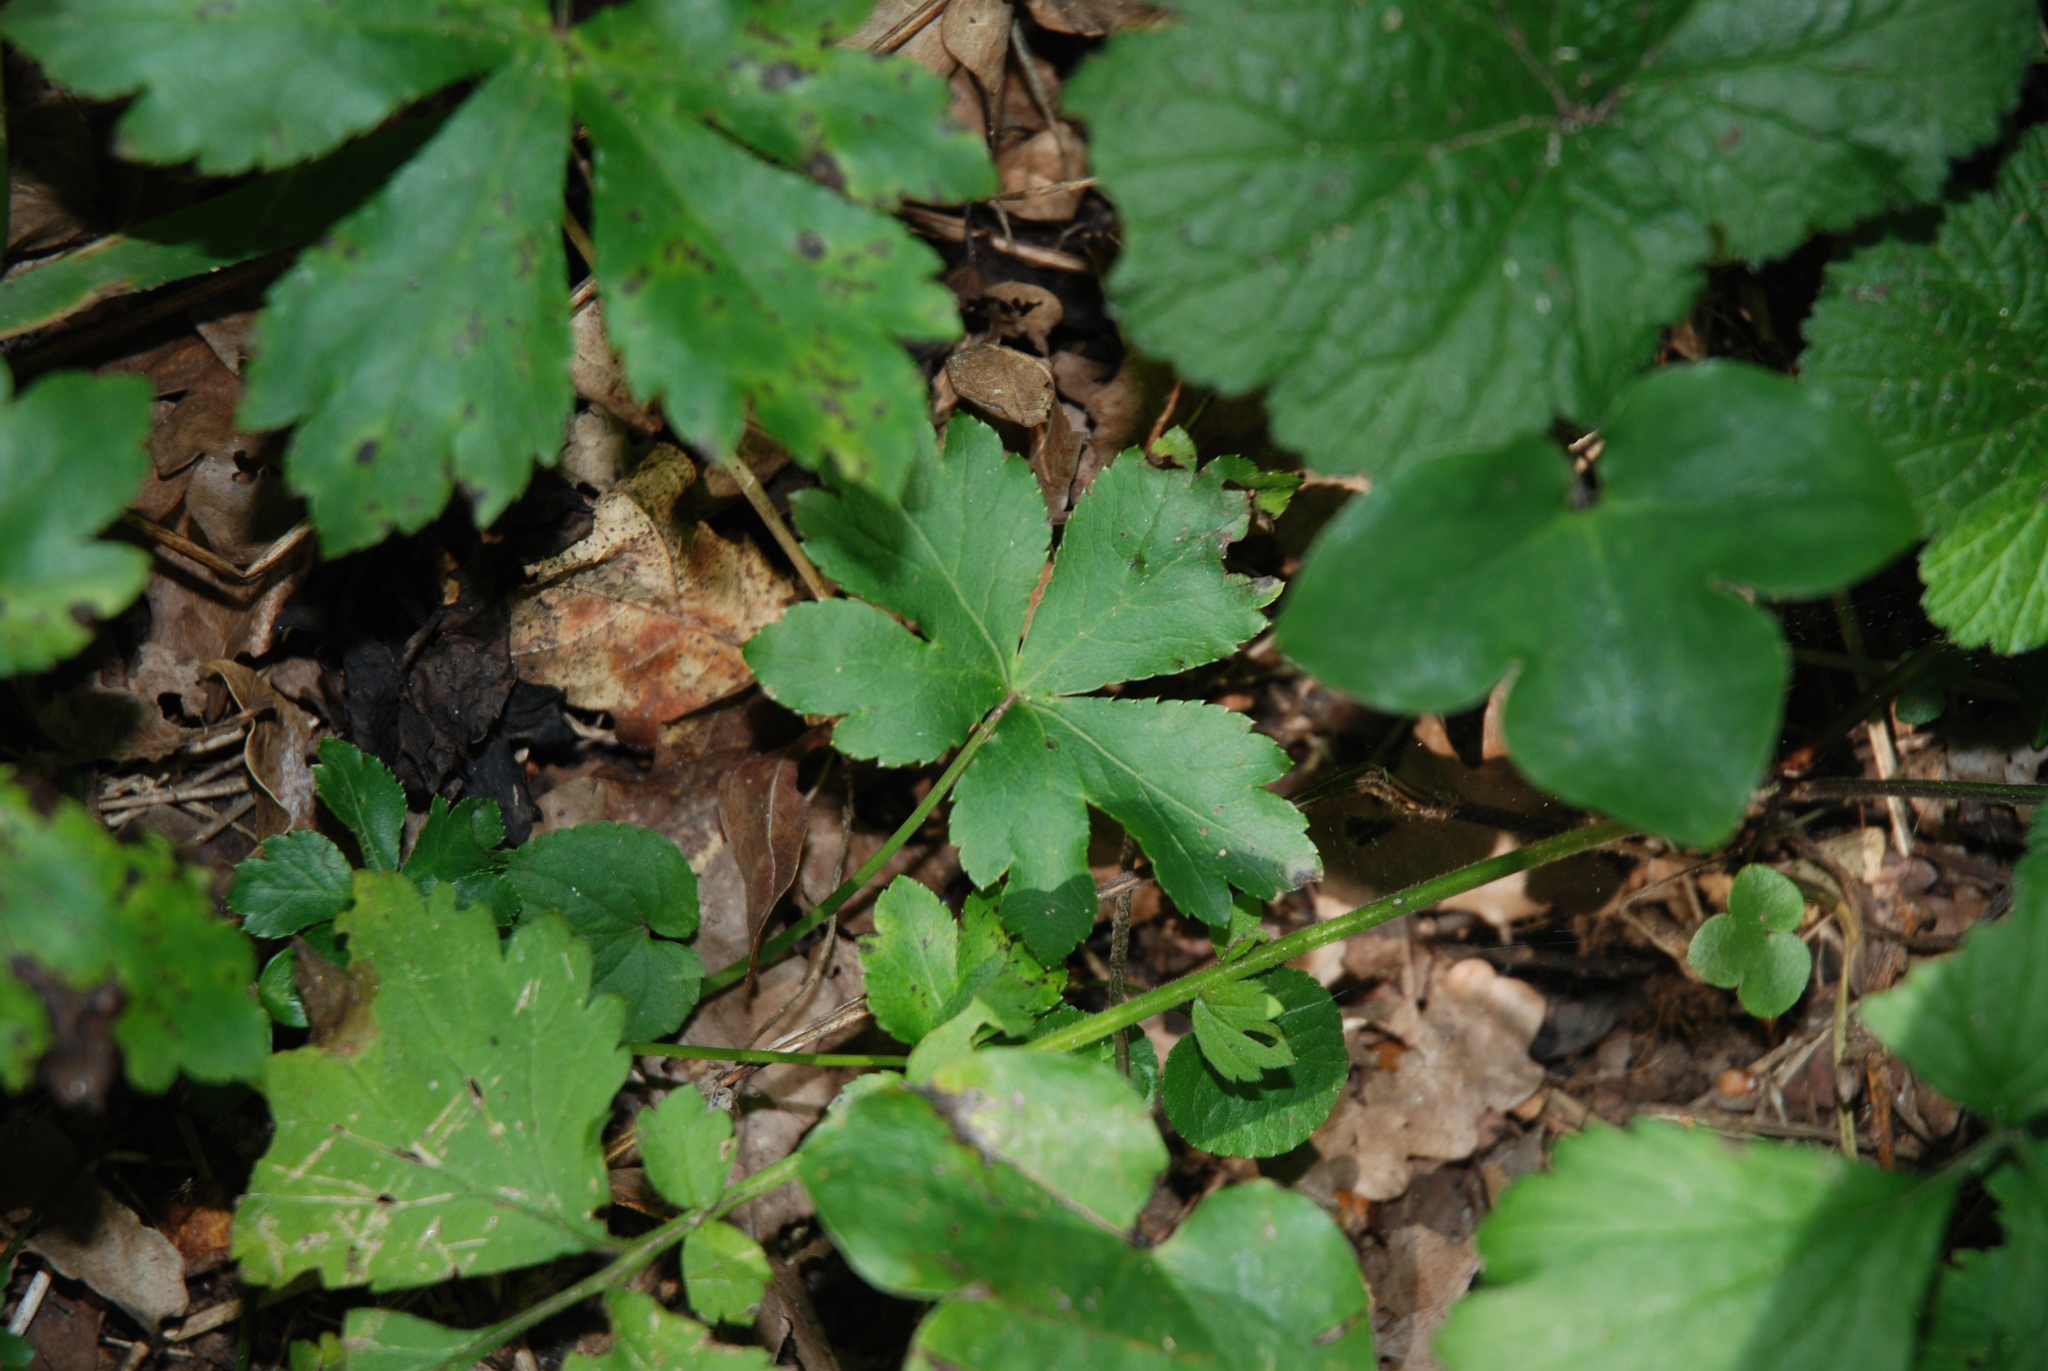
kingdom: Plantae
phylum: Tracheophyta
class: Magnoliopsida
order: Apiales
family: Apiaceae
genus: Sanicula
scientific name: Sanicula europaea
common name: Sanicle
